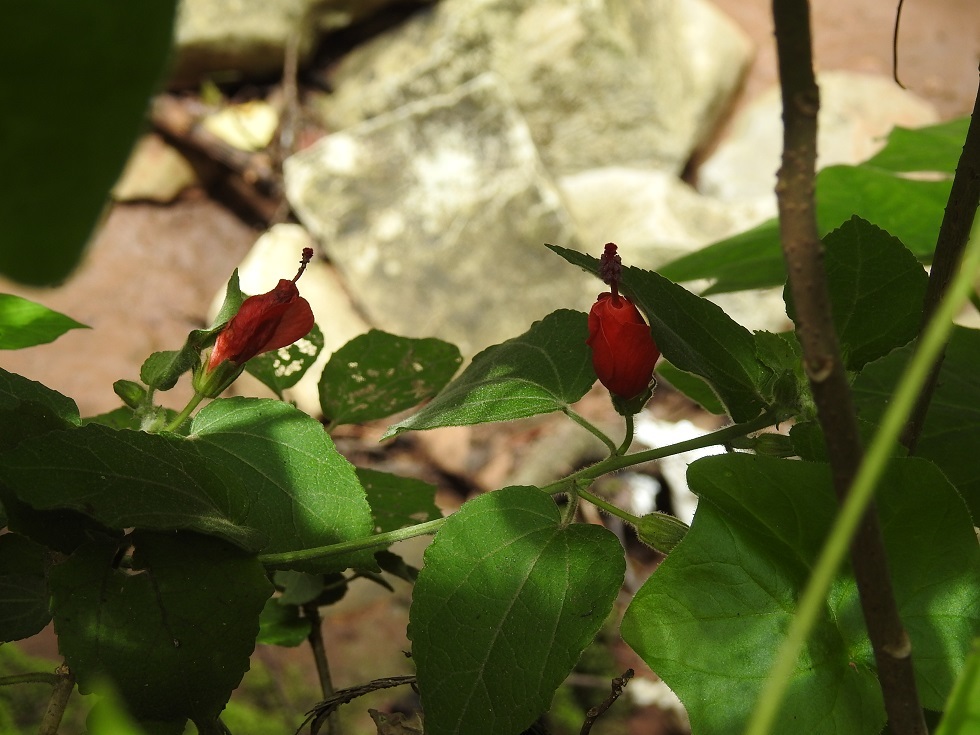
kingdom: Plantae
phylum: Tracheophyta
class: Magnoliopsida
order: Malvales
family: Malvaceae
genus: Malvaviscus
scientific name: Malvaviscus arboreus
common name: Wax mallow
